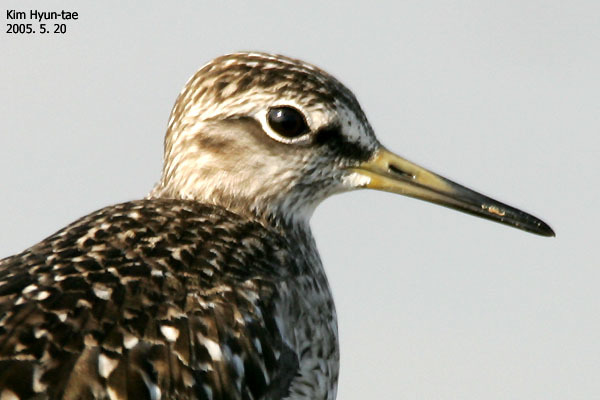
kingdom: Animalia
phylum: Chordata
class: Aves
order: Charadriiformes
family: Scolopacidae
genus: Tringa
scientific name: Tringa glareola
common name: Wood sandpiper
